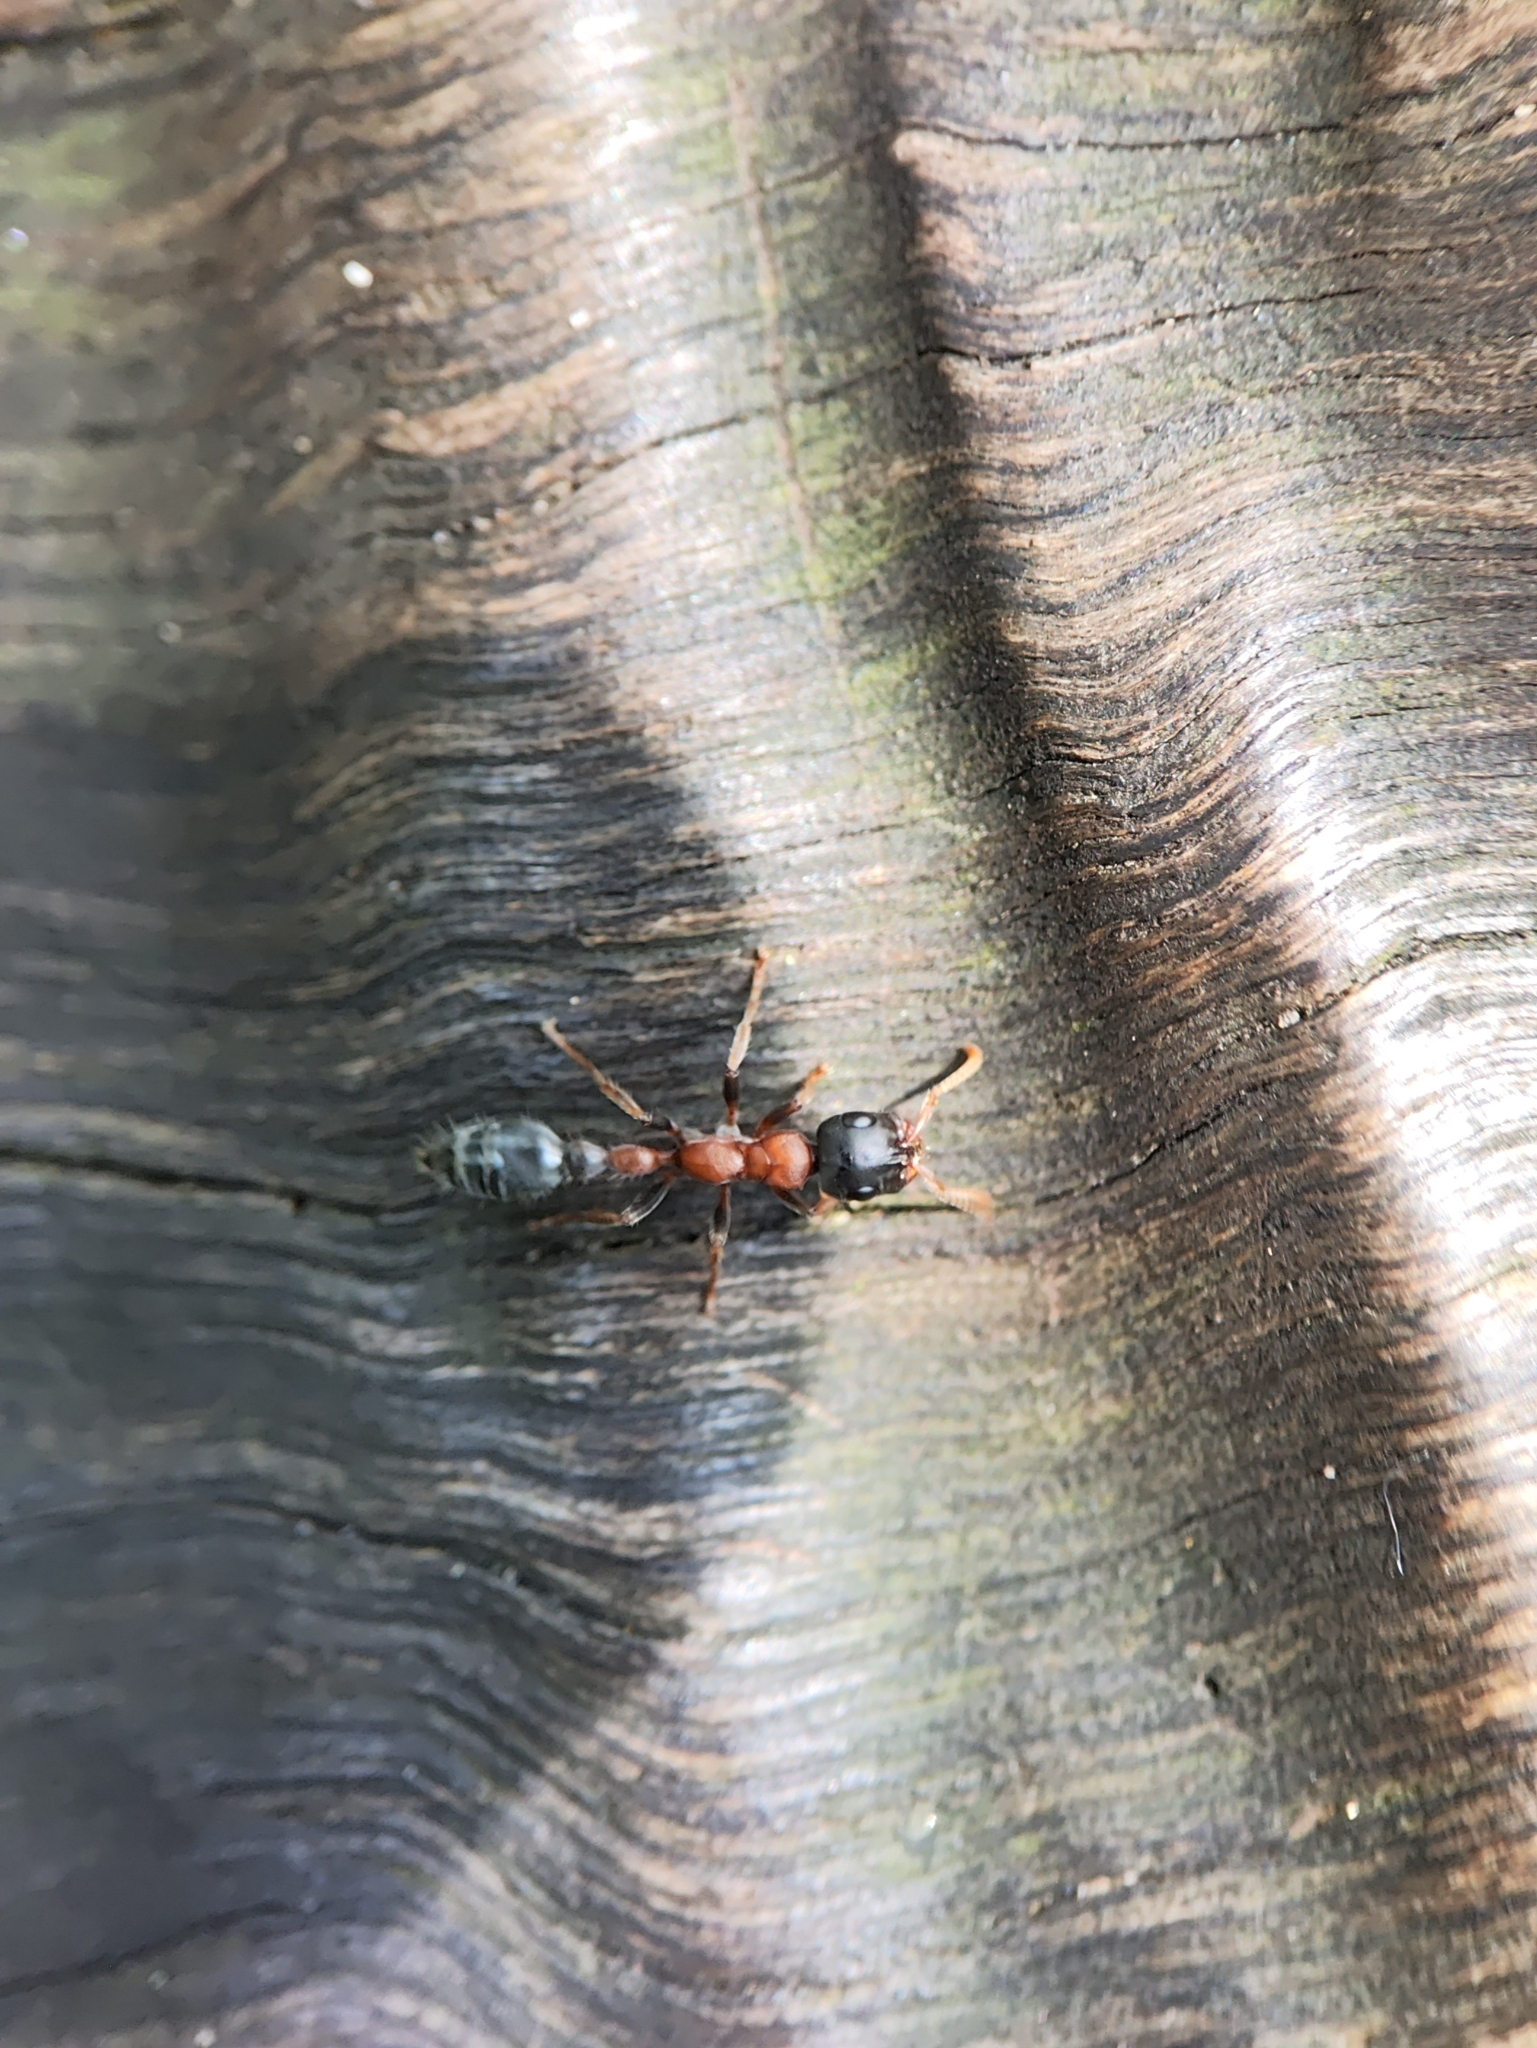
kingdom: Animalia
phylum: Arthropoda
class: Insecta
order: Hymenoptera
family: Formicidae
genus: Tetraponera
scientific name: Tetraponera rufonigra
